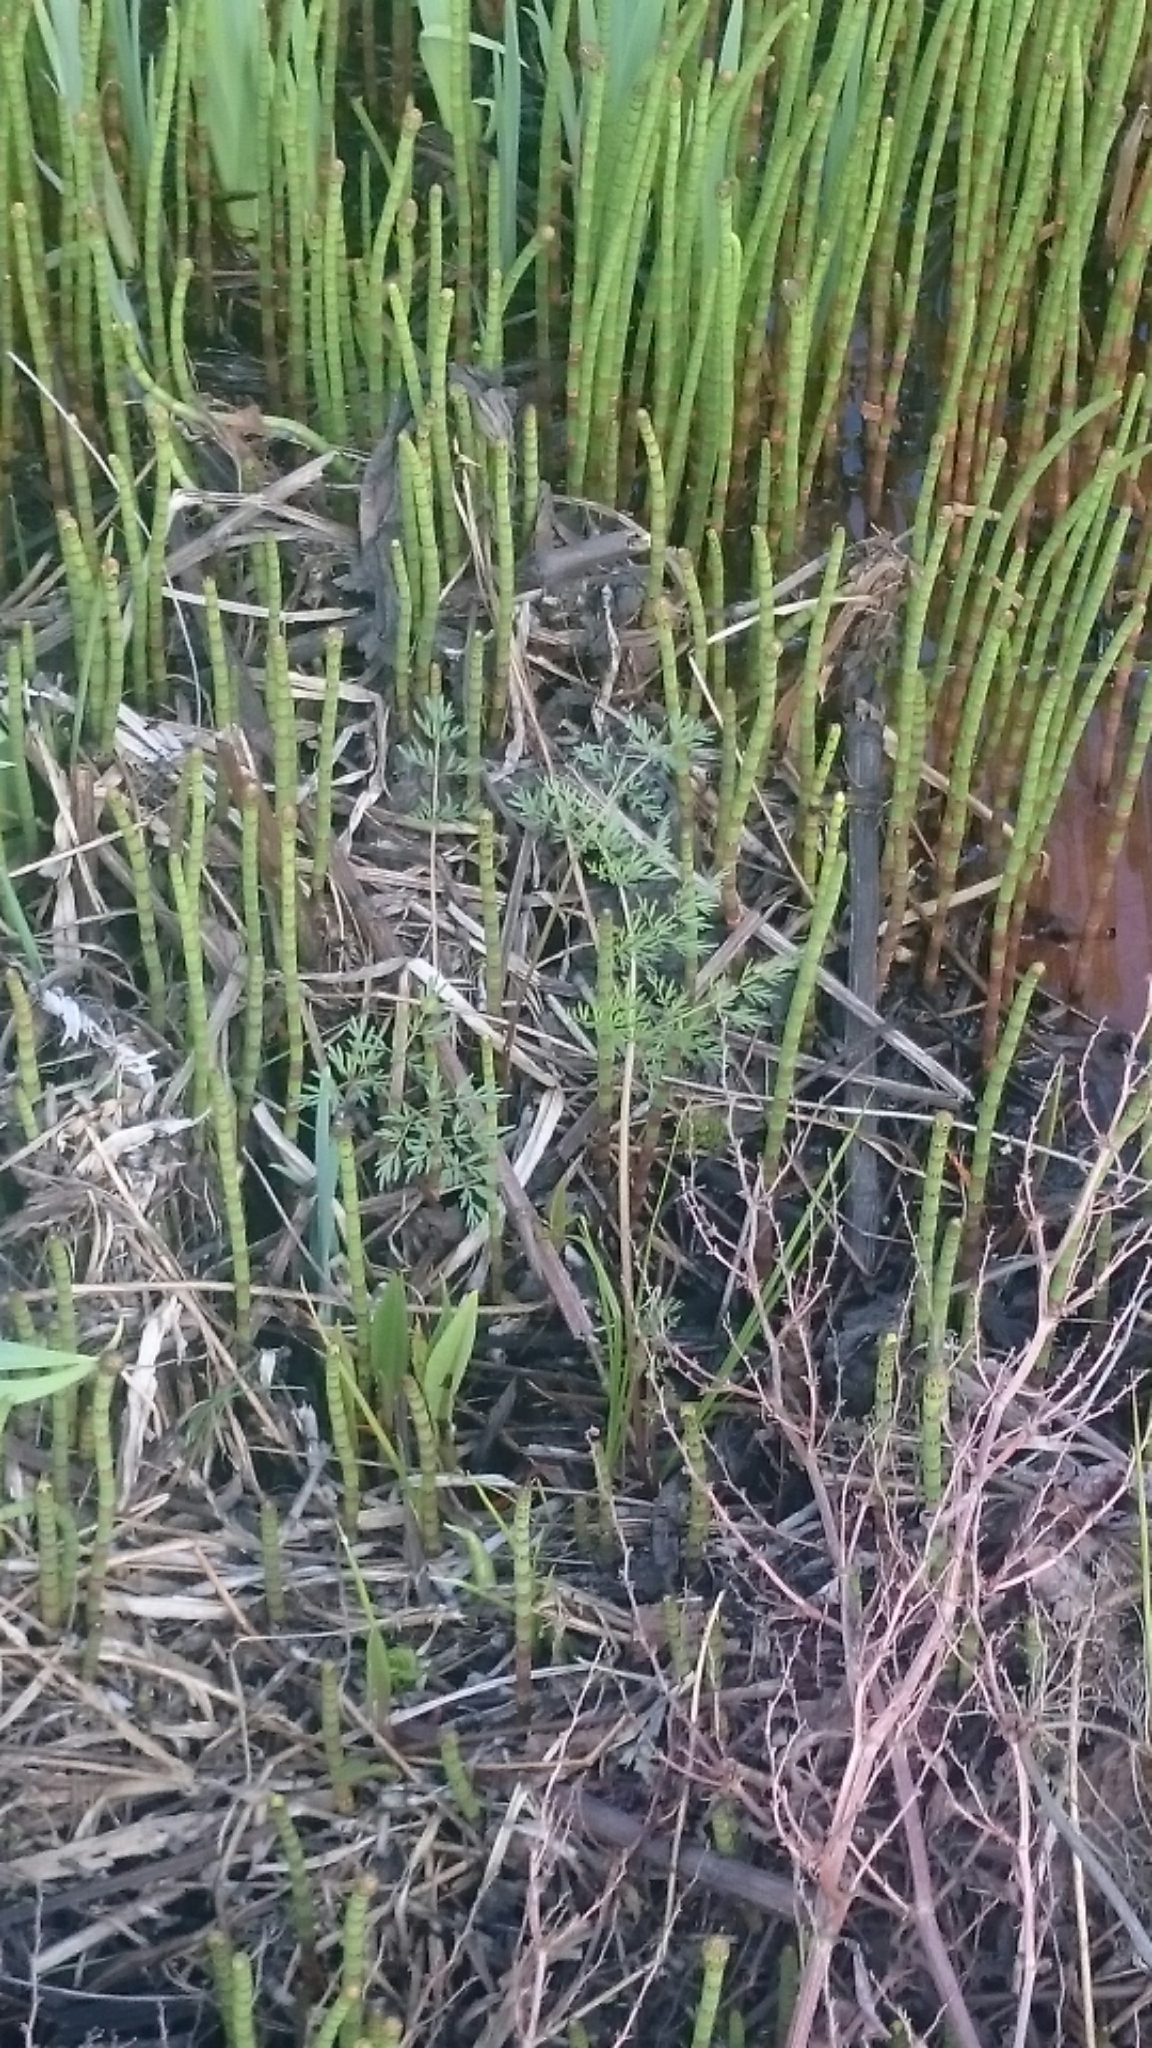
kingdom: Plantae
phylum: Tracheophyta
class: Magnoliopsida
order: Apiales
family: Apiaceae
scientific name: Apiaceae
